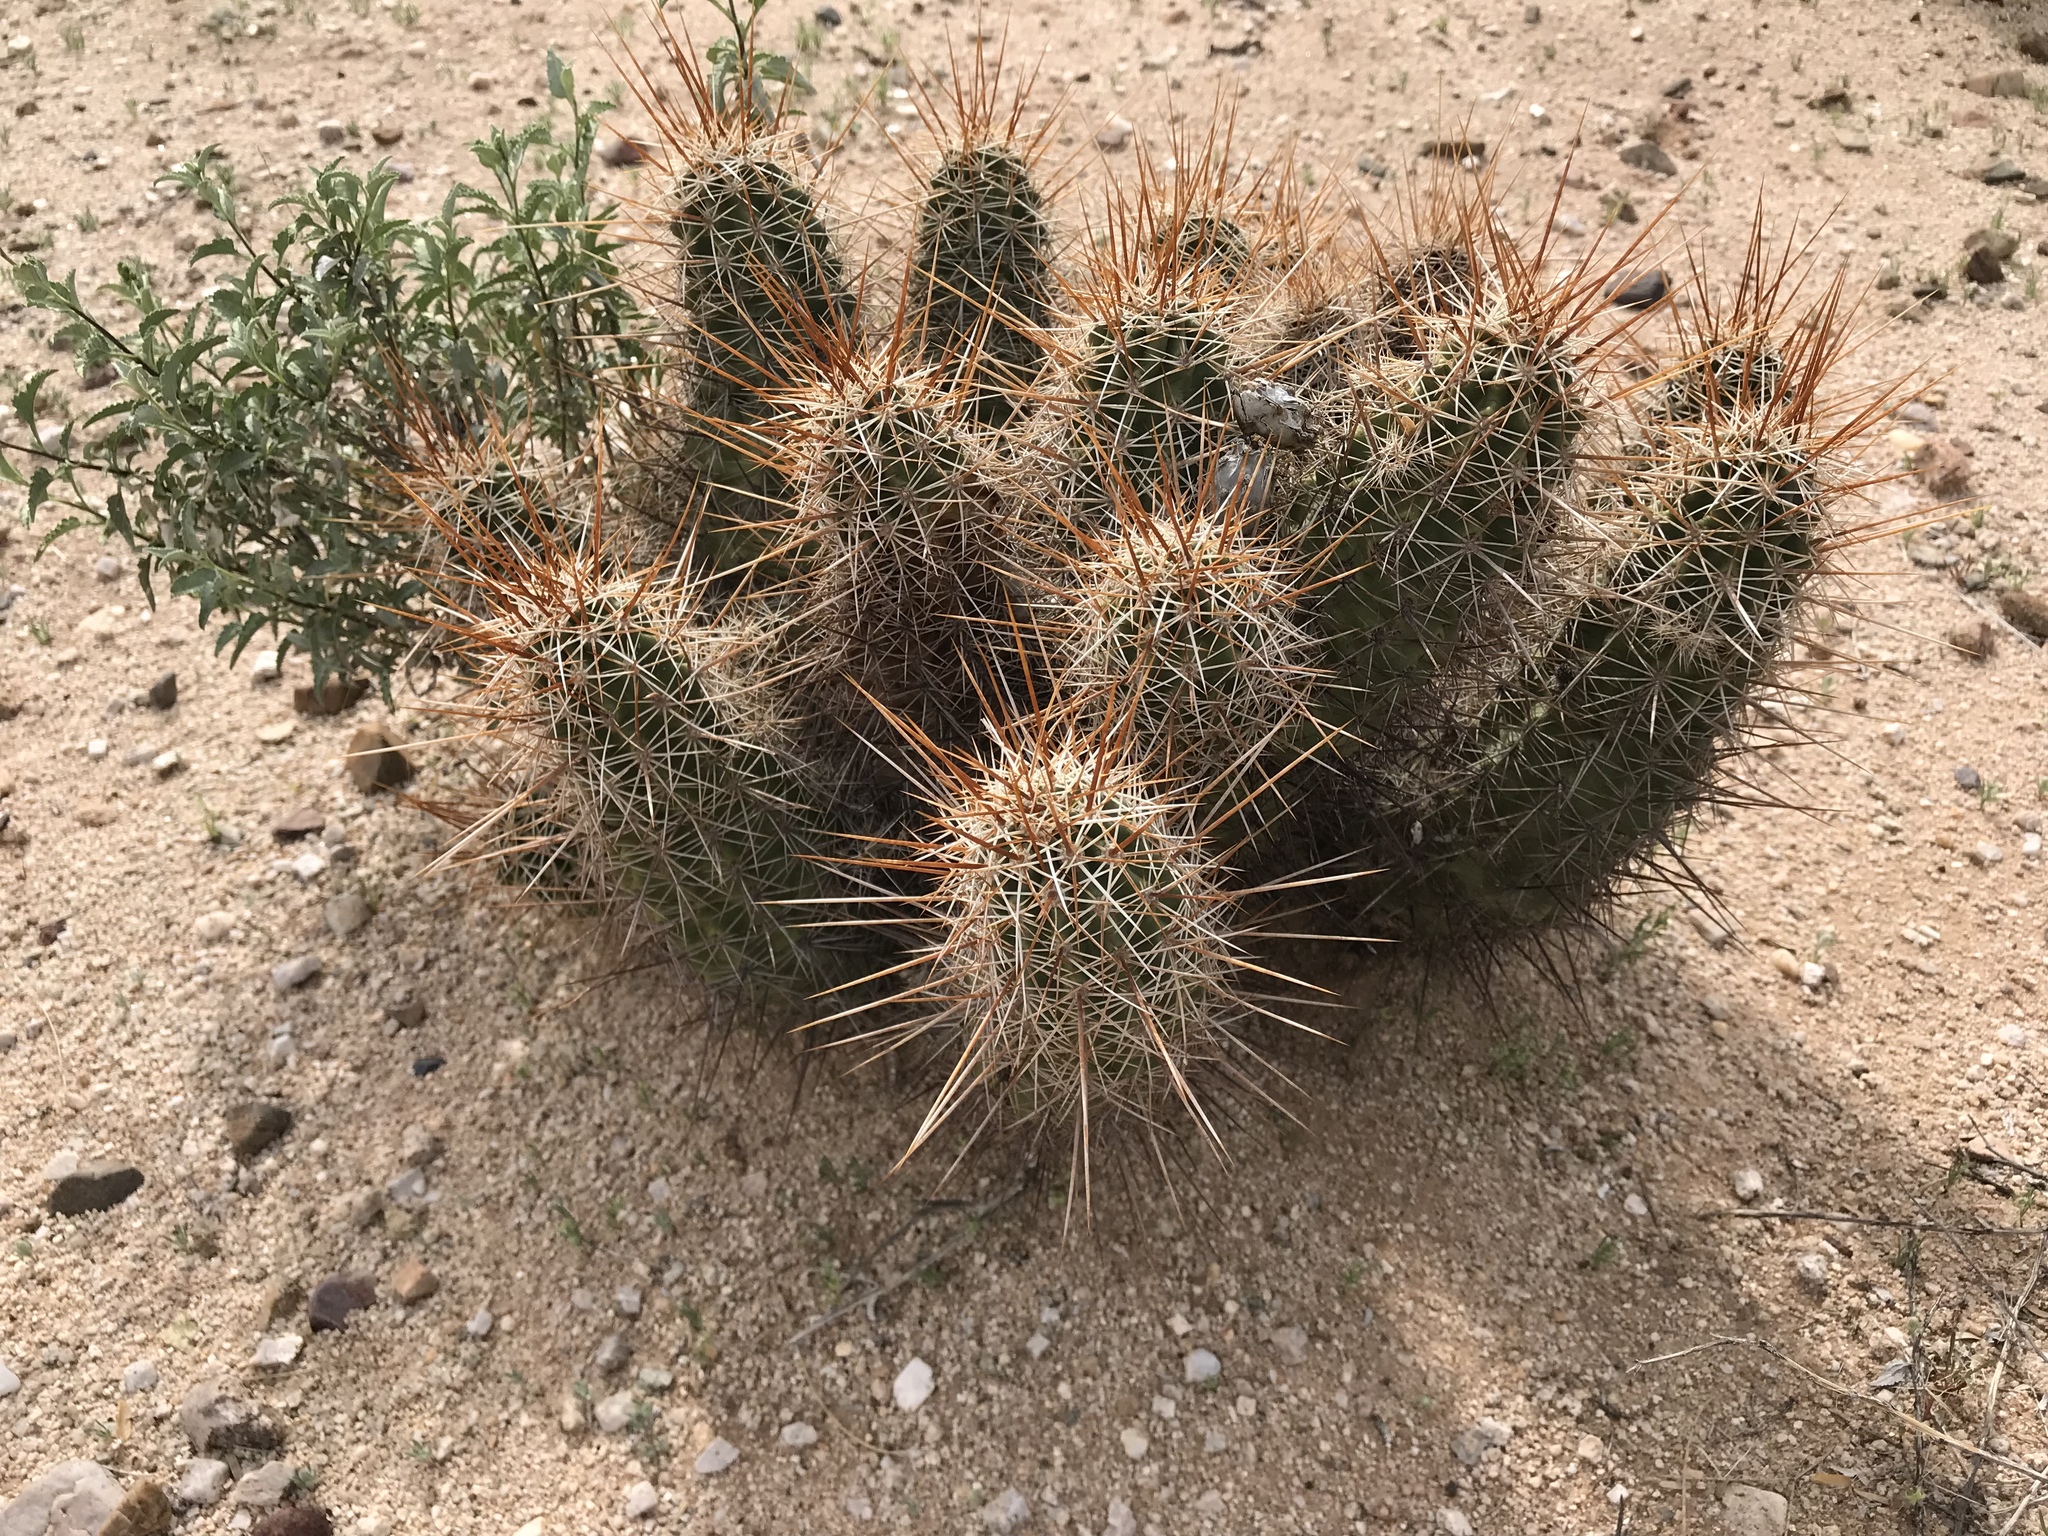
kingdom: Plantae
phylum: Tracheophyta
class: Magnoliopsida
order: Caryophyllales
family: Cactaceae
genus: Echinocereus
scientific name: Echinocereus fasciculatus
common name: Bundle hedgehog
